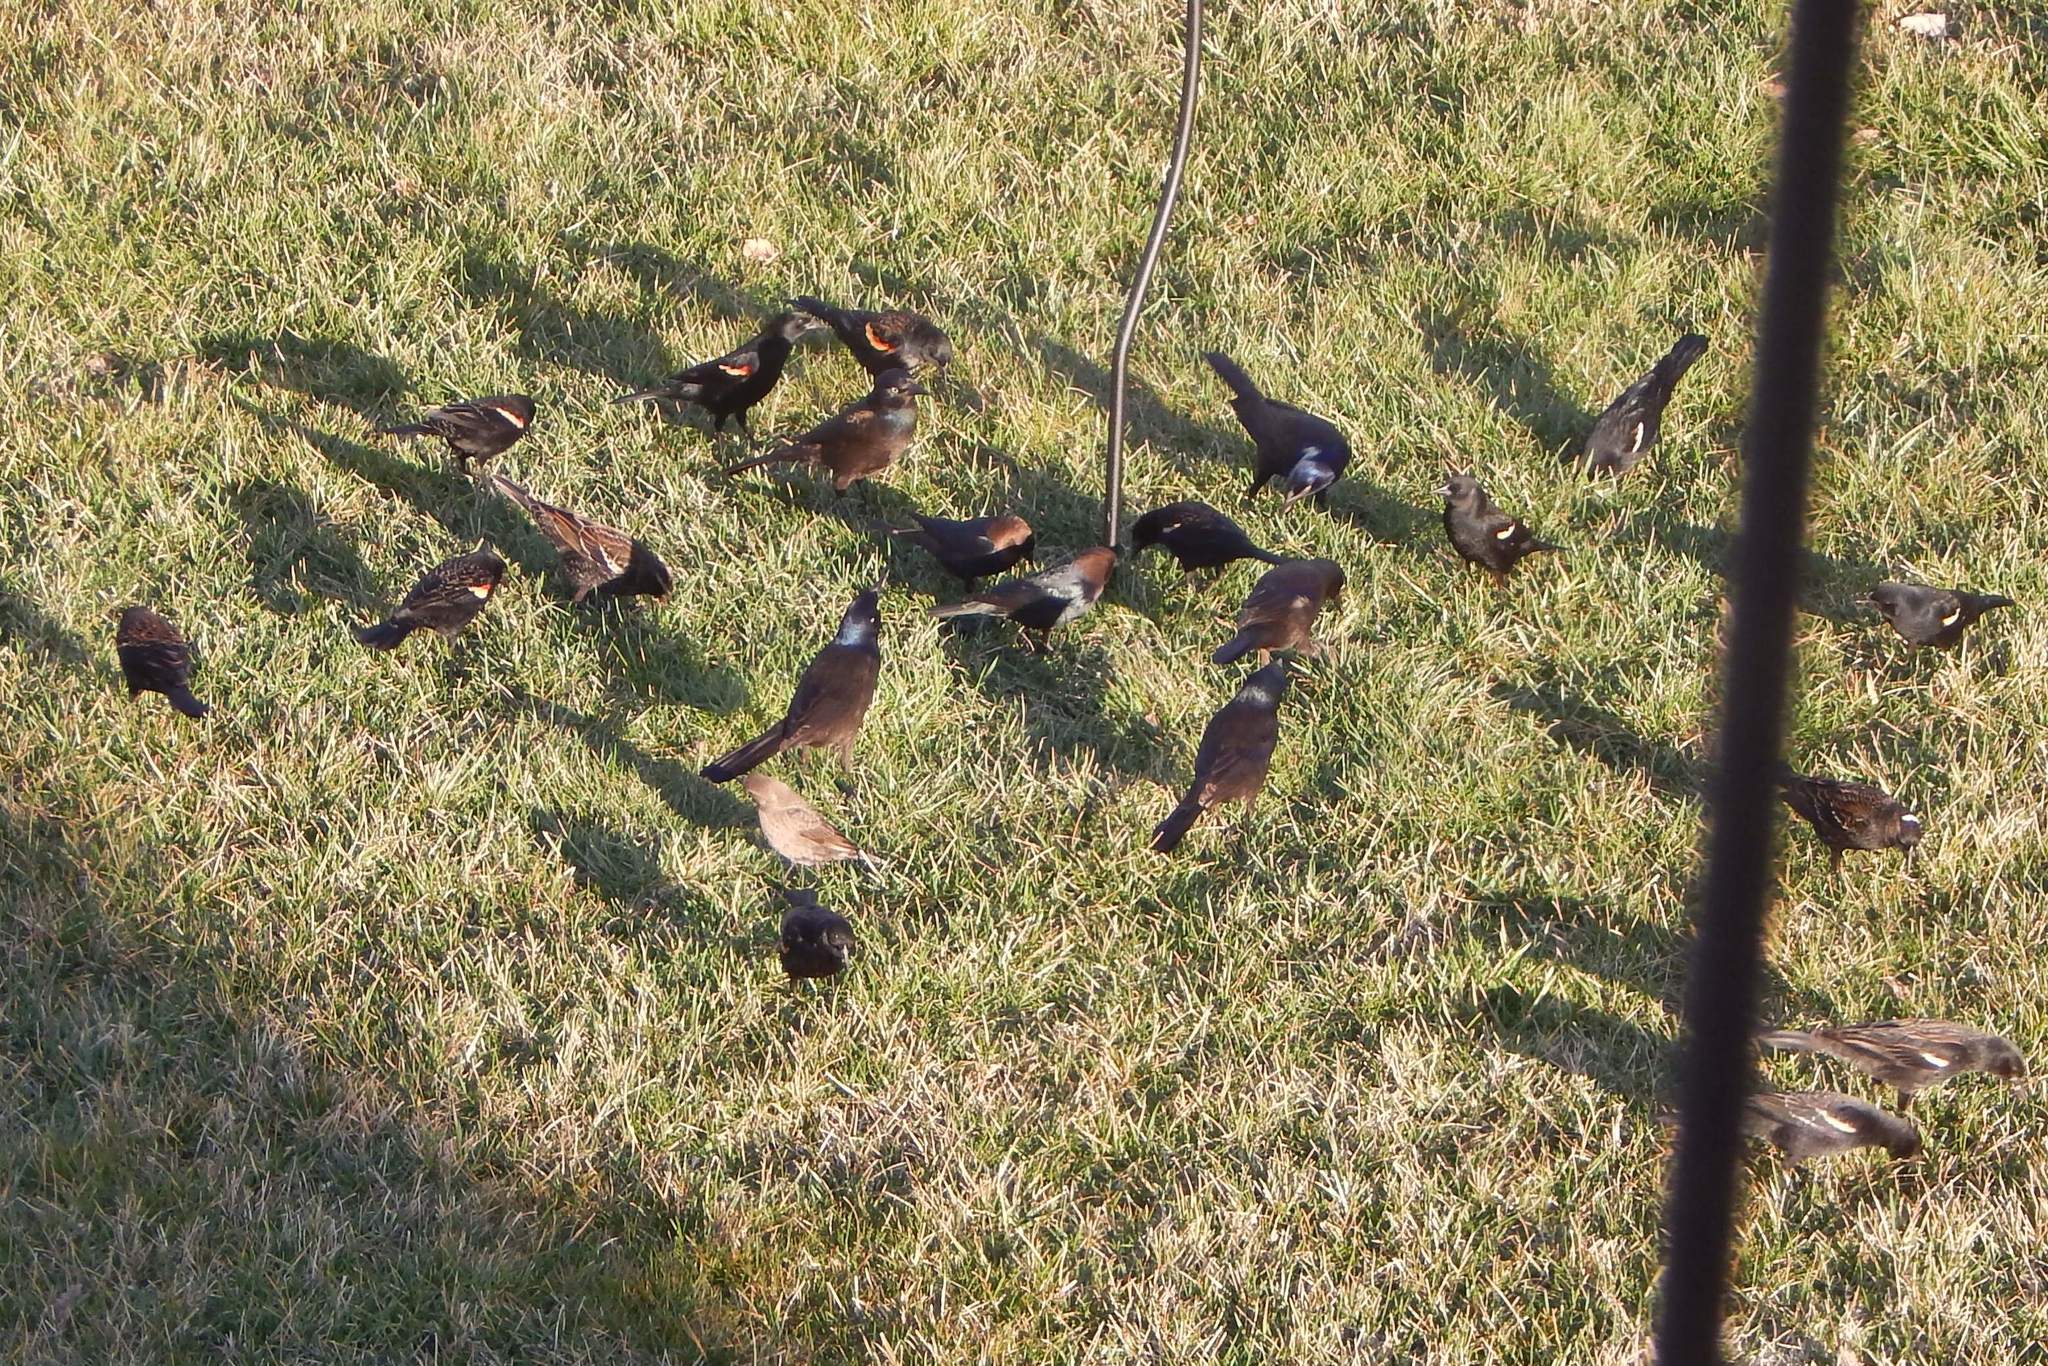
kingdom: Animalia
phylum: Chordata
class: Aves
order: Passeriformes
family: Icteridae
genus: Molothrus
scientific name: Molothrus ater
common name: Brown-headed cowbird
